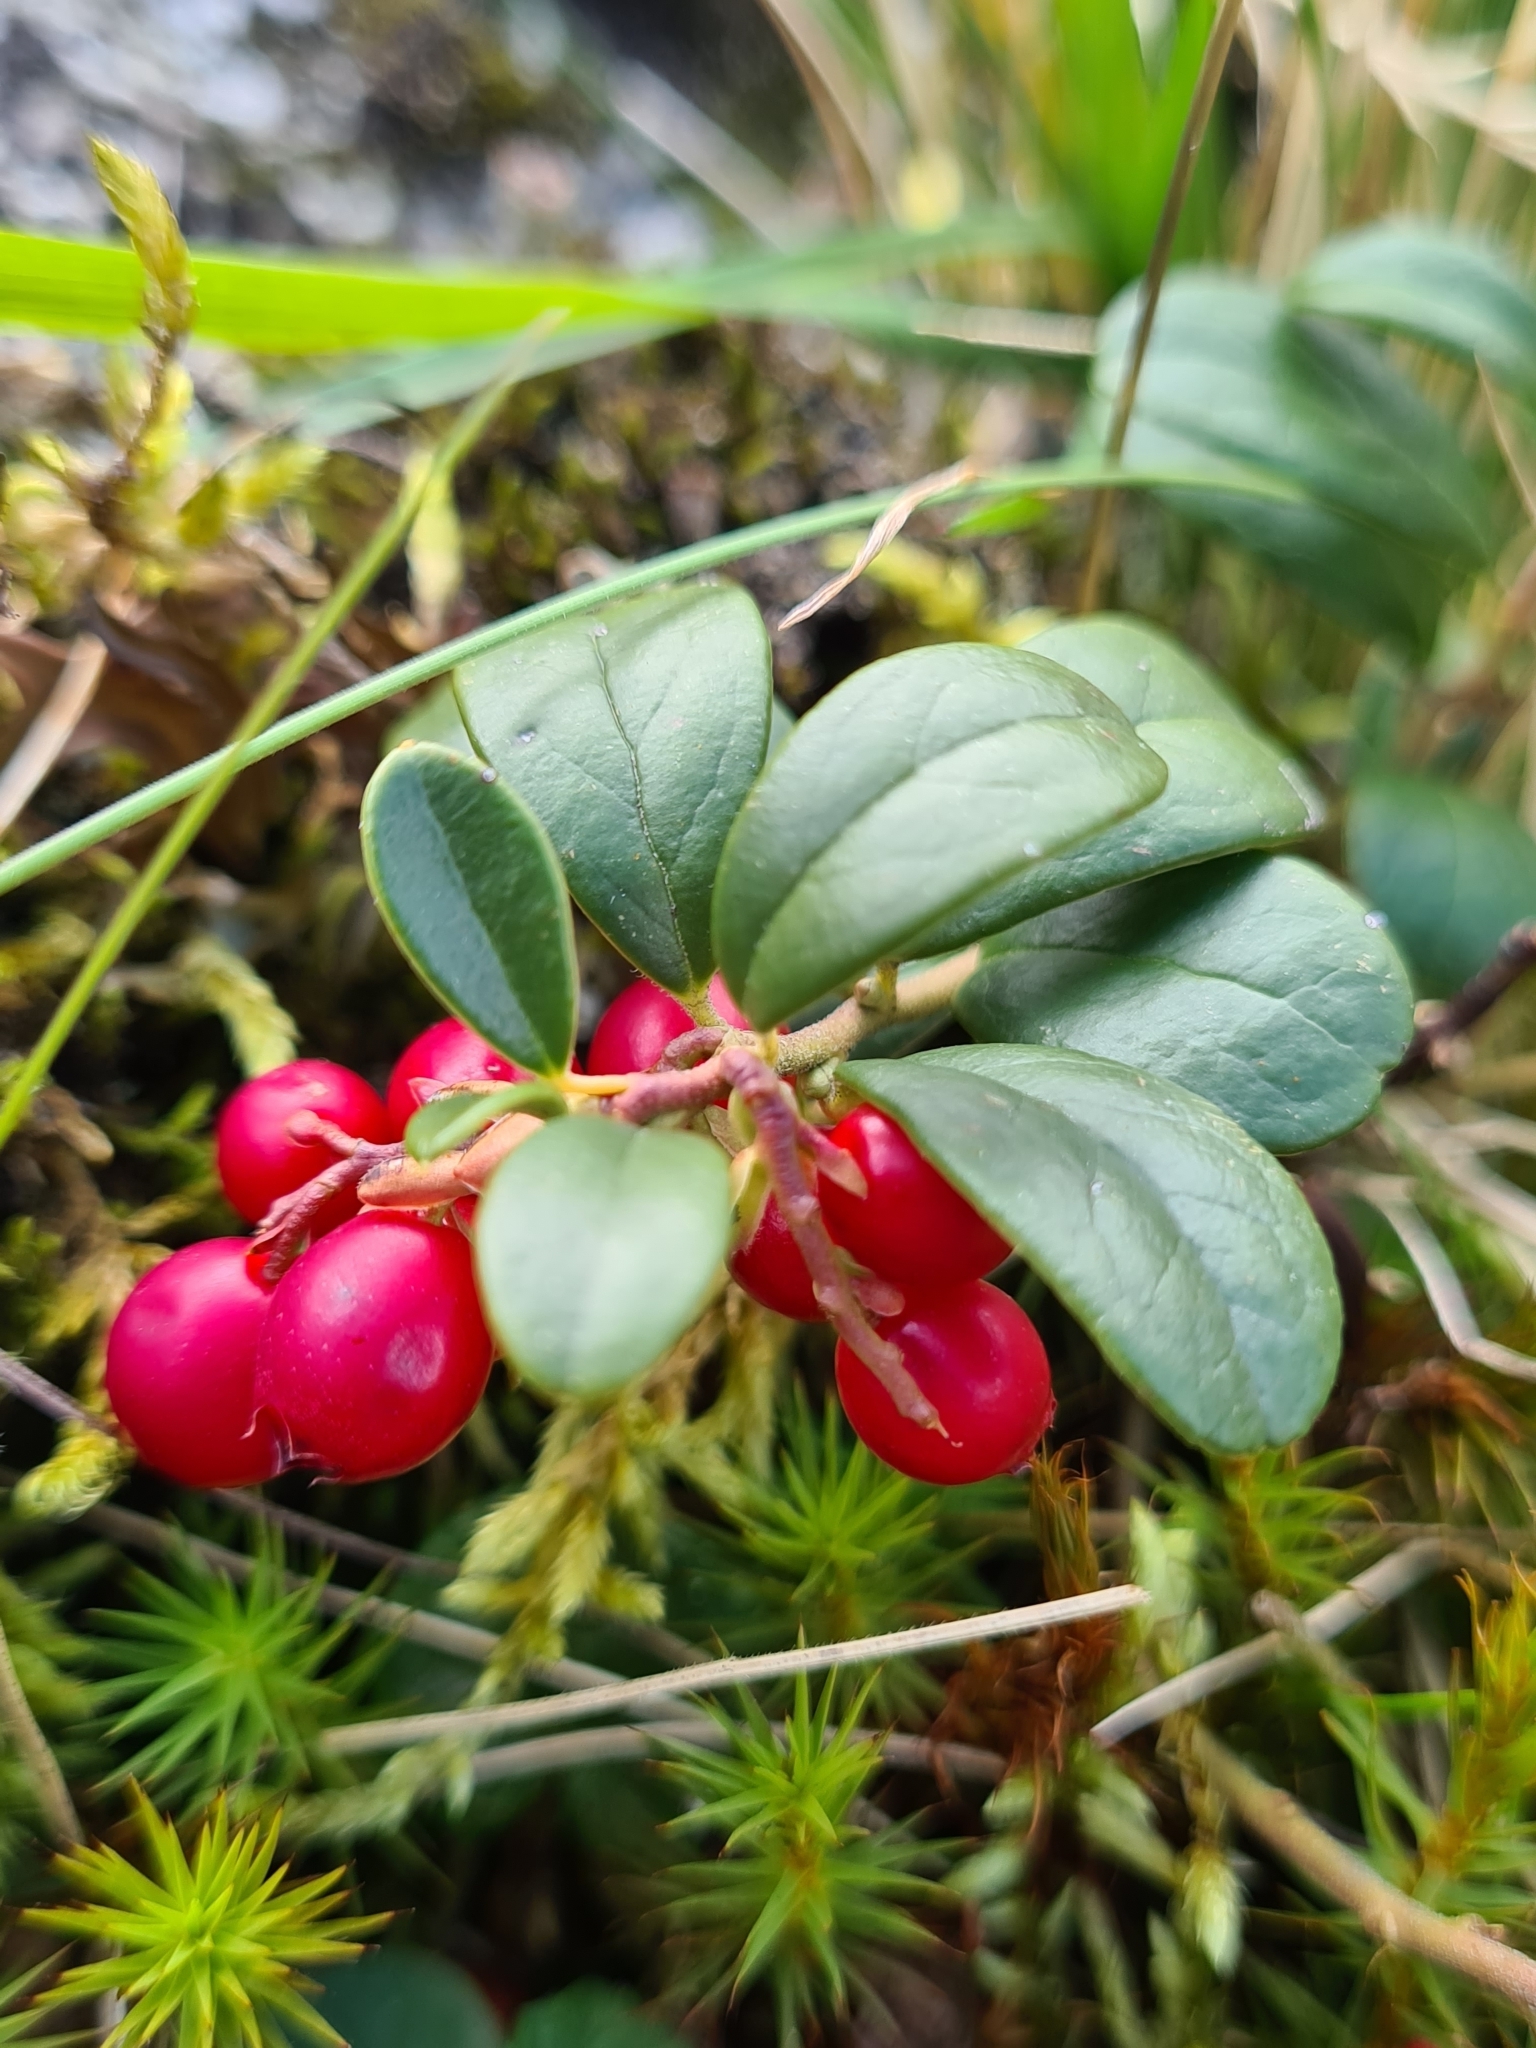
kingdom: Plantae
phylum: Tracheophyta
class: Magnoliopsida
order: Ericales
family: Ericaceae
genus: Vaccinium
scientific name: Vaccinium vitis-idaea
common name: Cowberry
